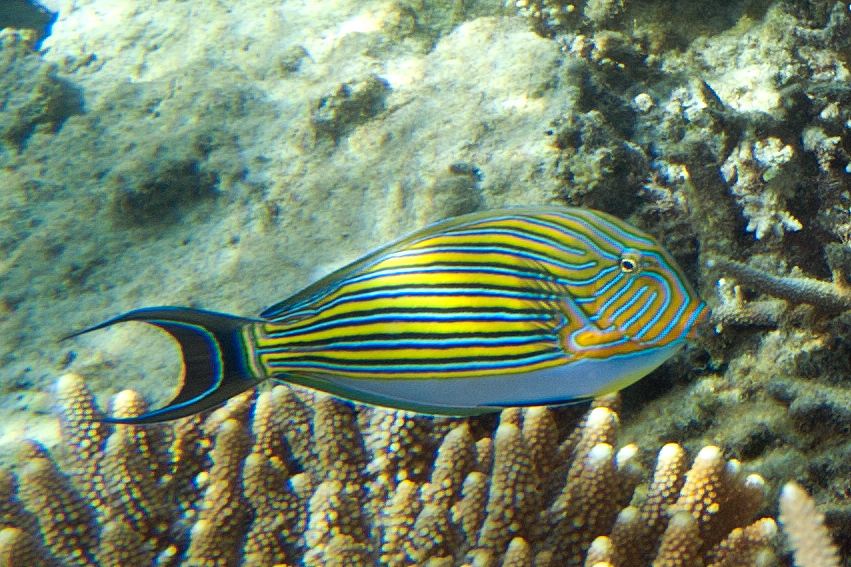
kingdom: Animalia
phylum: Chordata
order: Perciformes
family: Acanthuridae
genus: Acanthurus
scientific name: Acanthurus lineatus
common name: Striped surgeonfish
